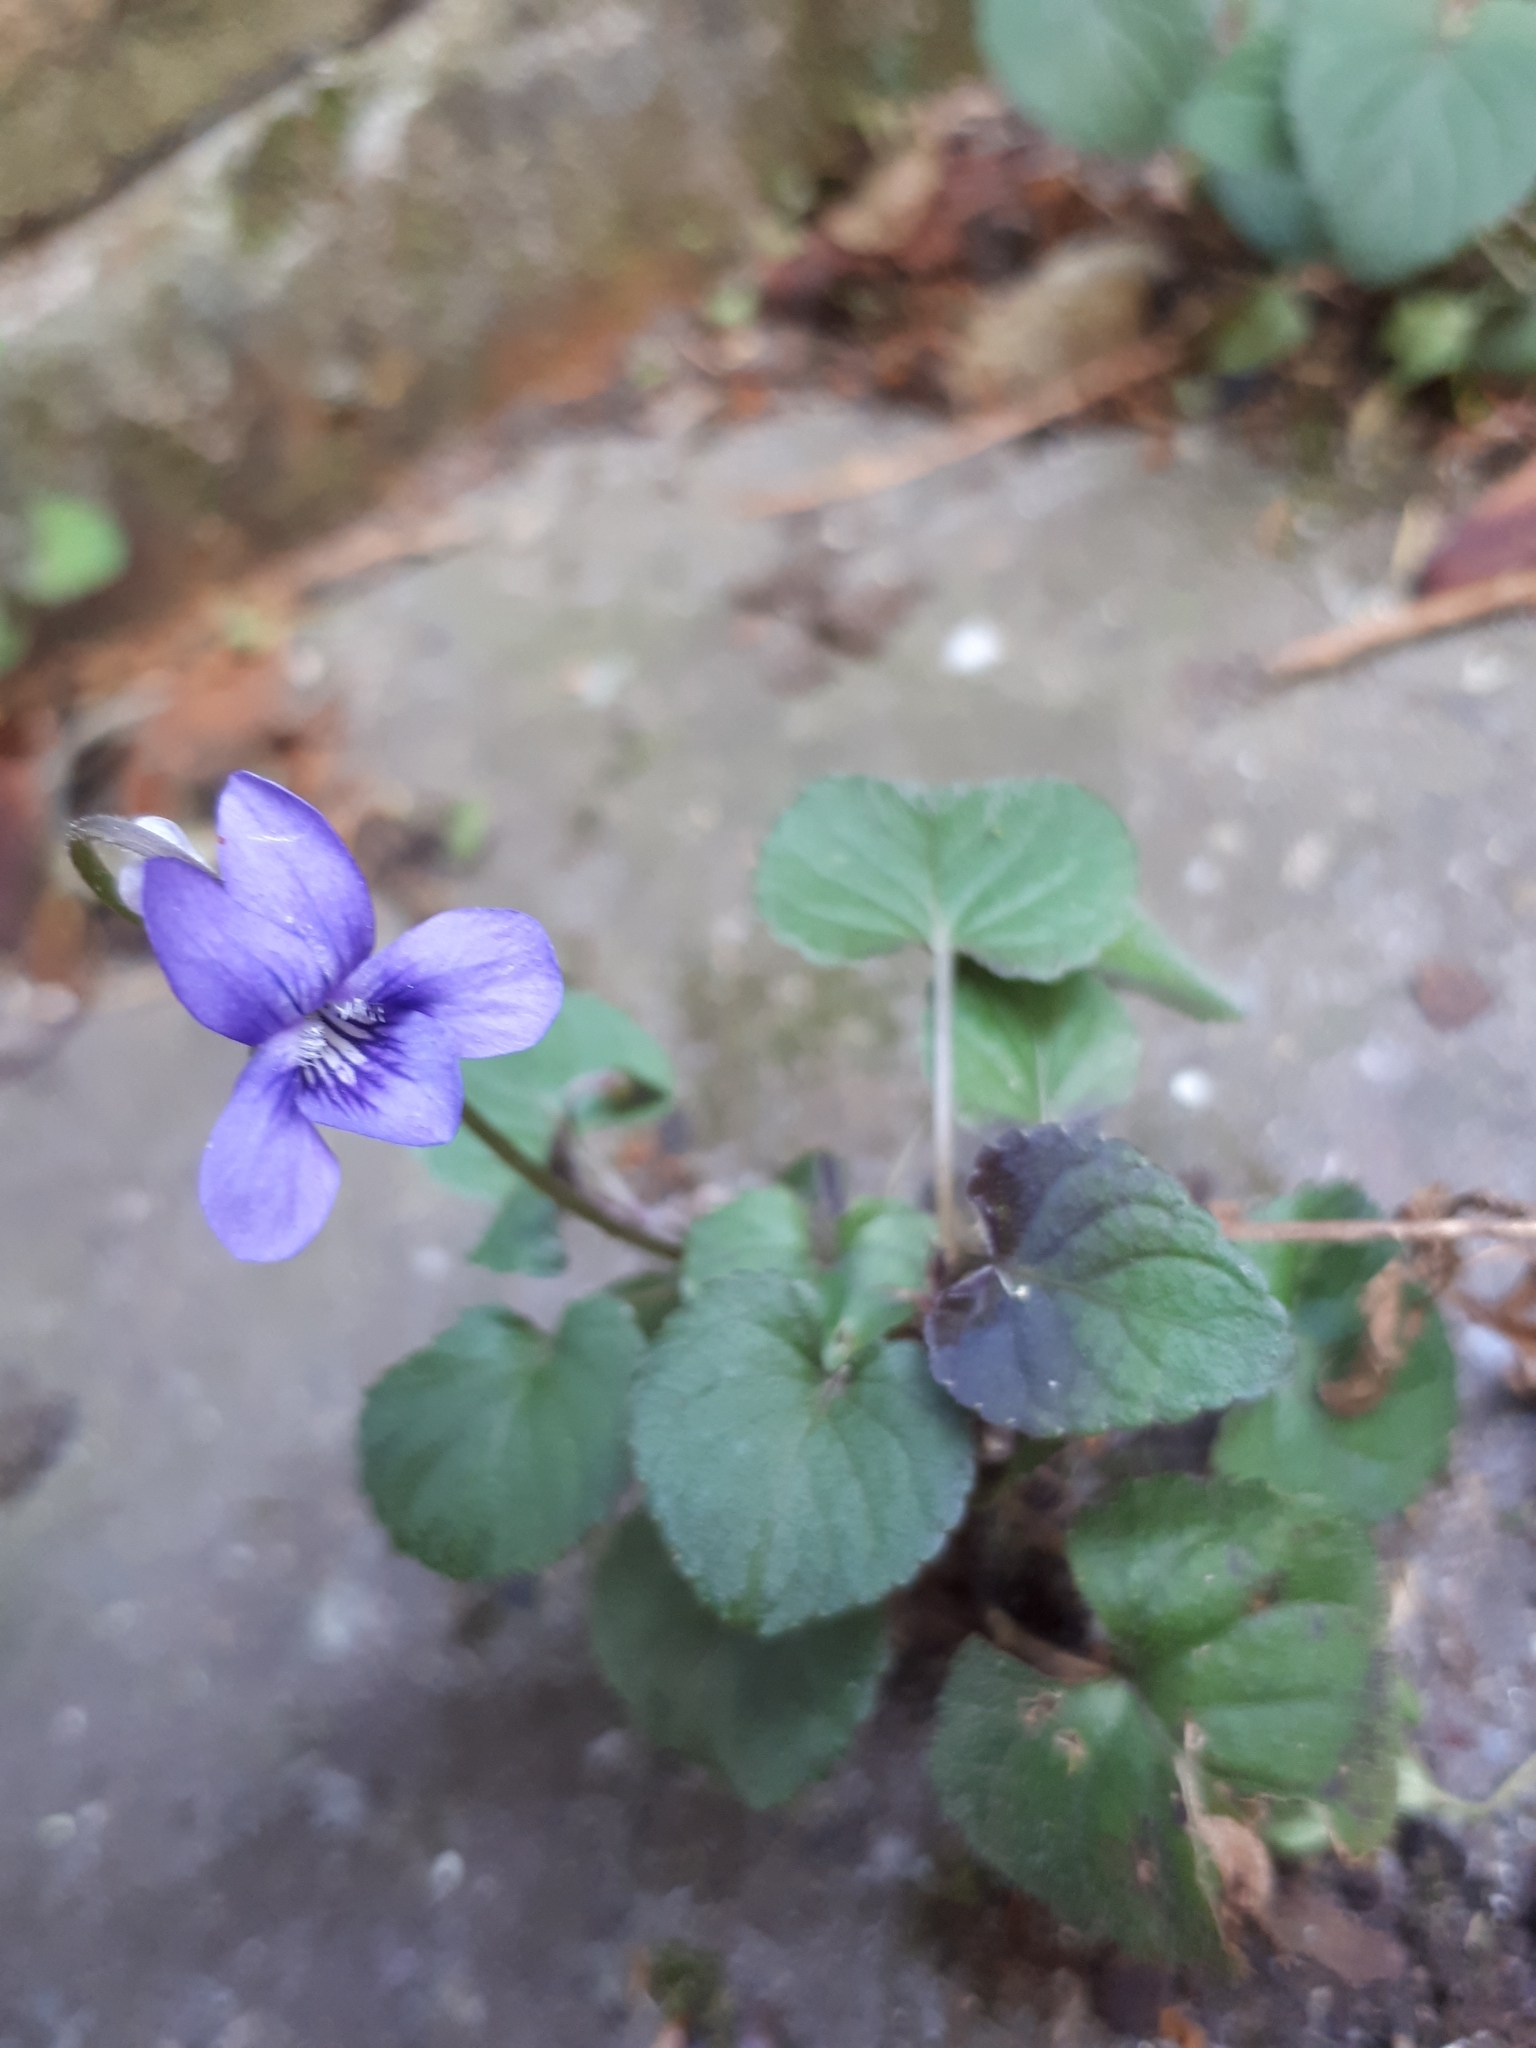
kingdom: Plantae
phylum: Tracheophyta
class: Magnoliopsida
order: Malpighiales
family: Violaceae
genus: Viola
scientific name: Viola riviniana
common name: Common dog-violet
